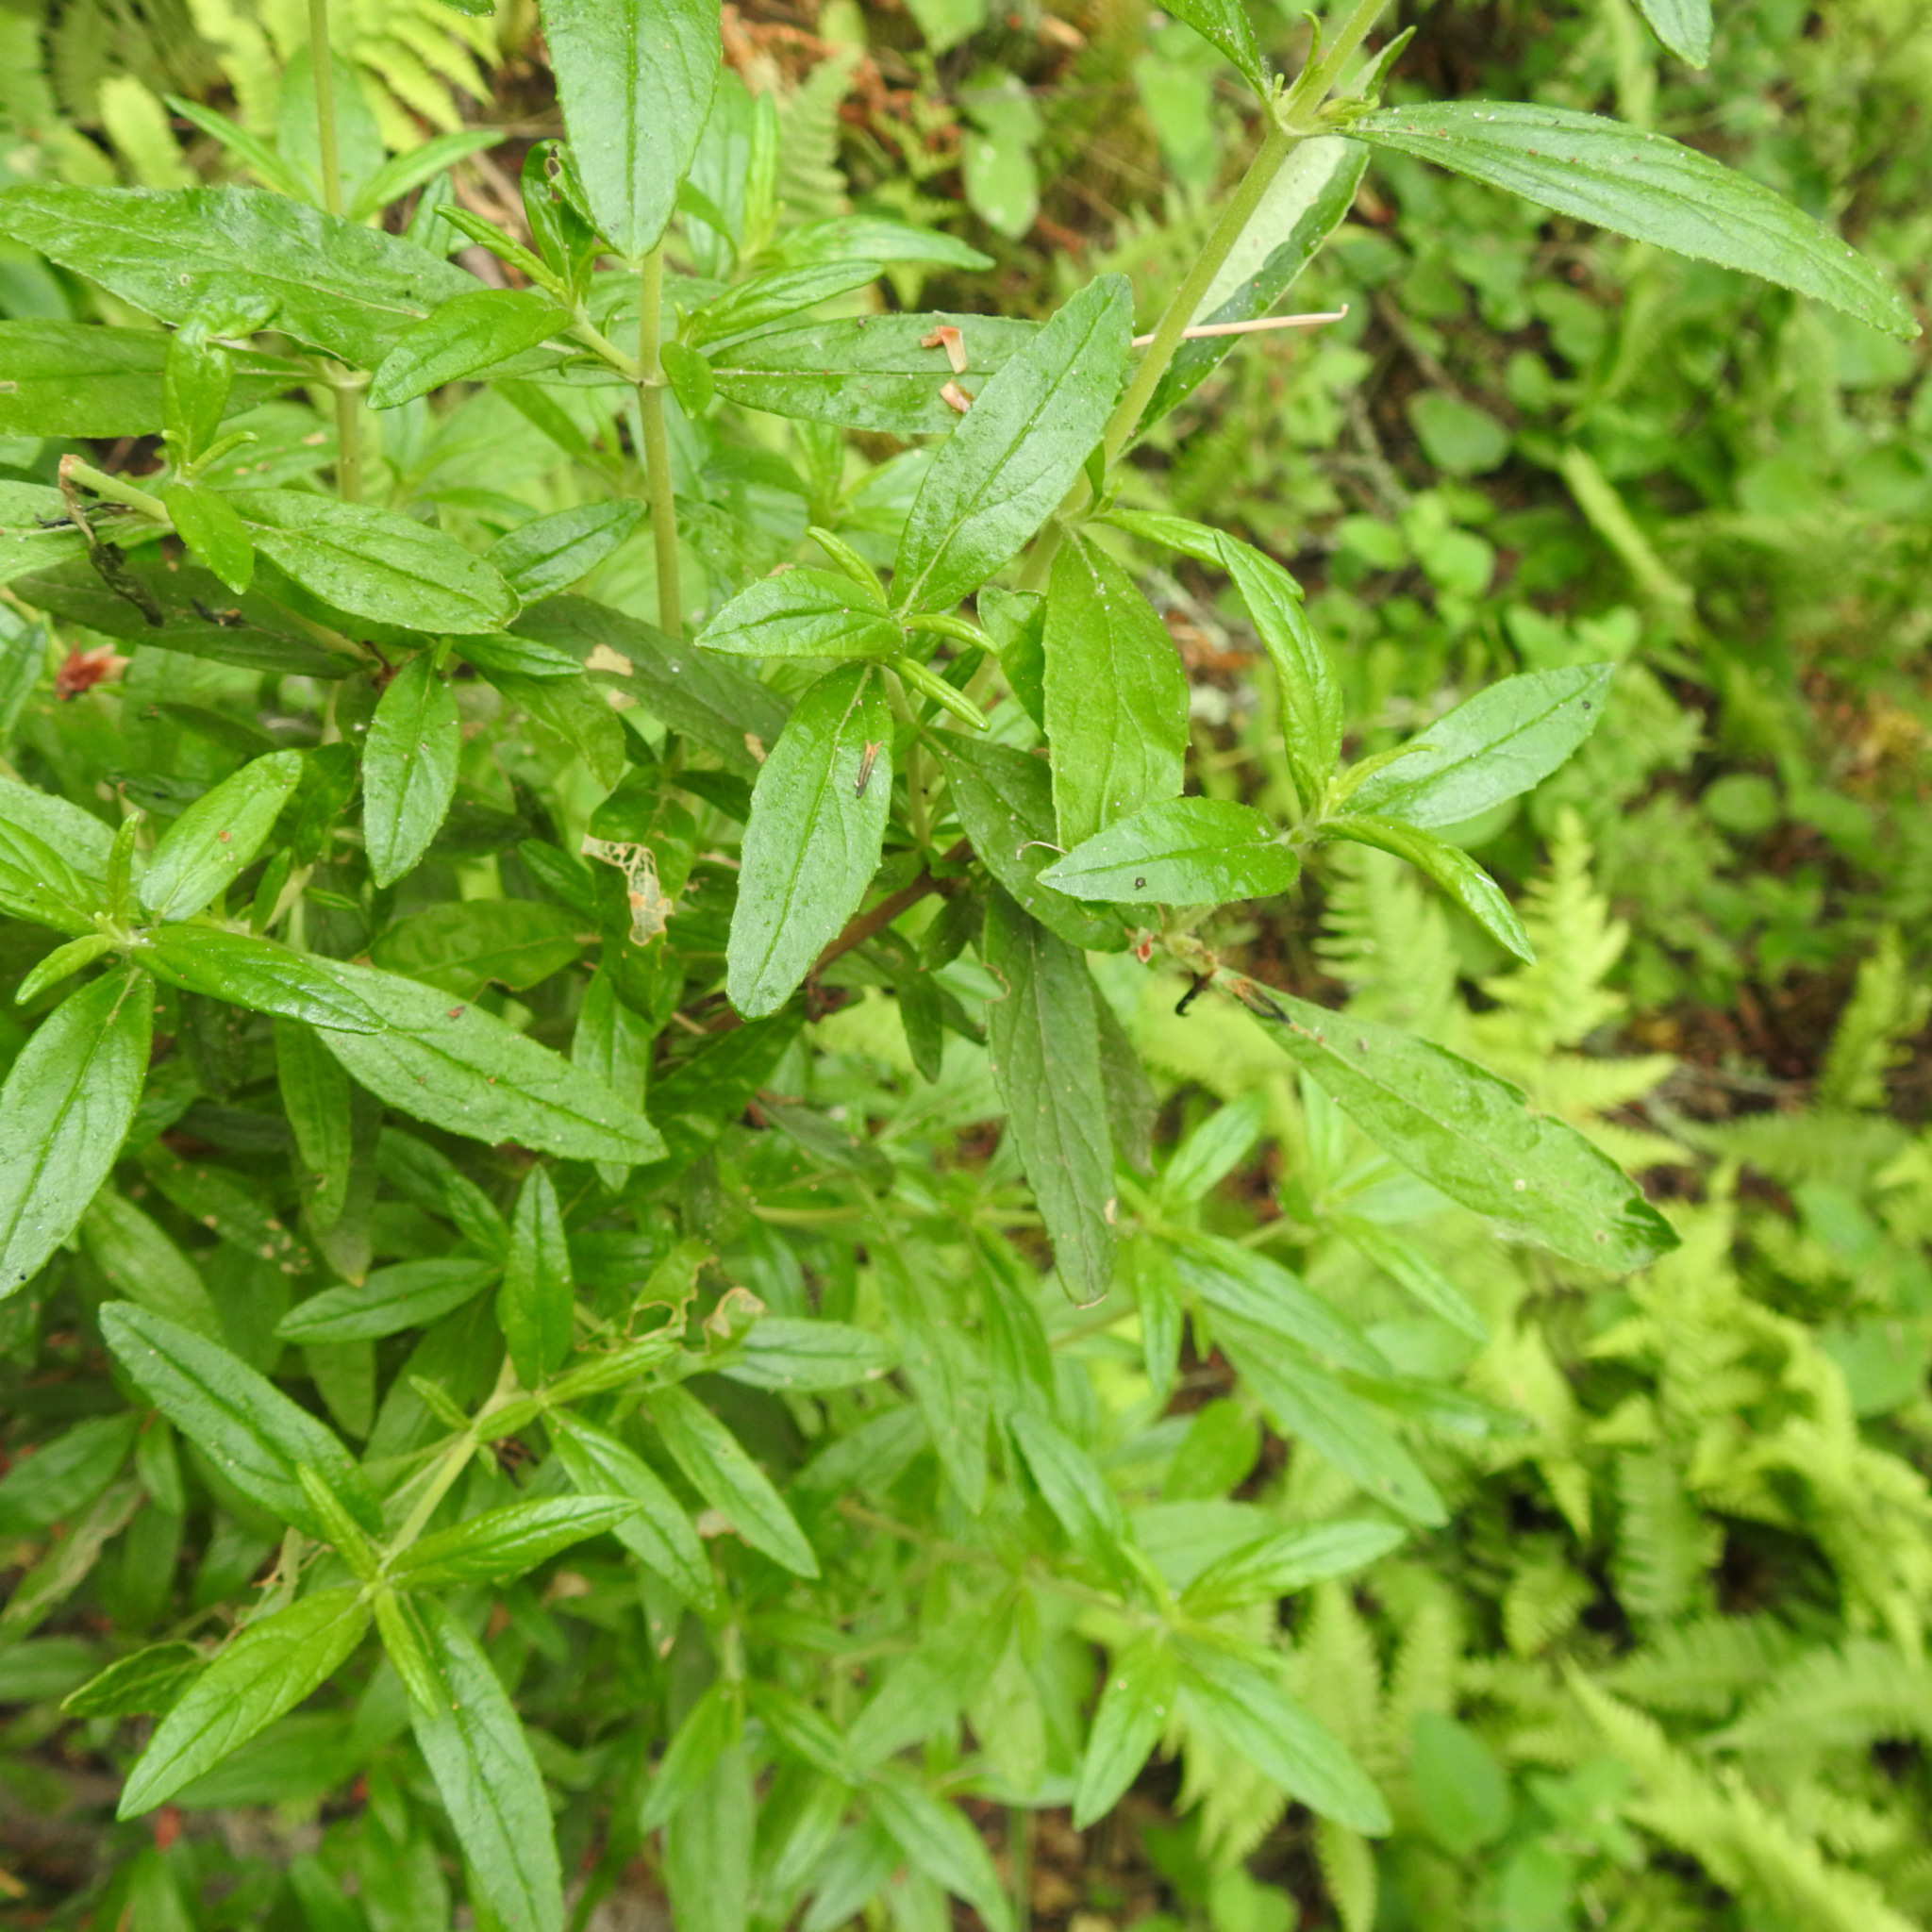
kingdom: Plantae
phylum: Tracheophyta
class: Magnoliopsida
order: Lamiales
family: Phrymaceae
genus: Diplacus
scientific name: Diplacus aurantiacus
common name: Bush monkey-flower
